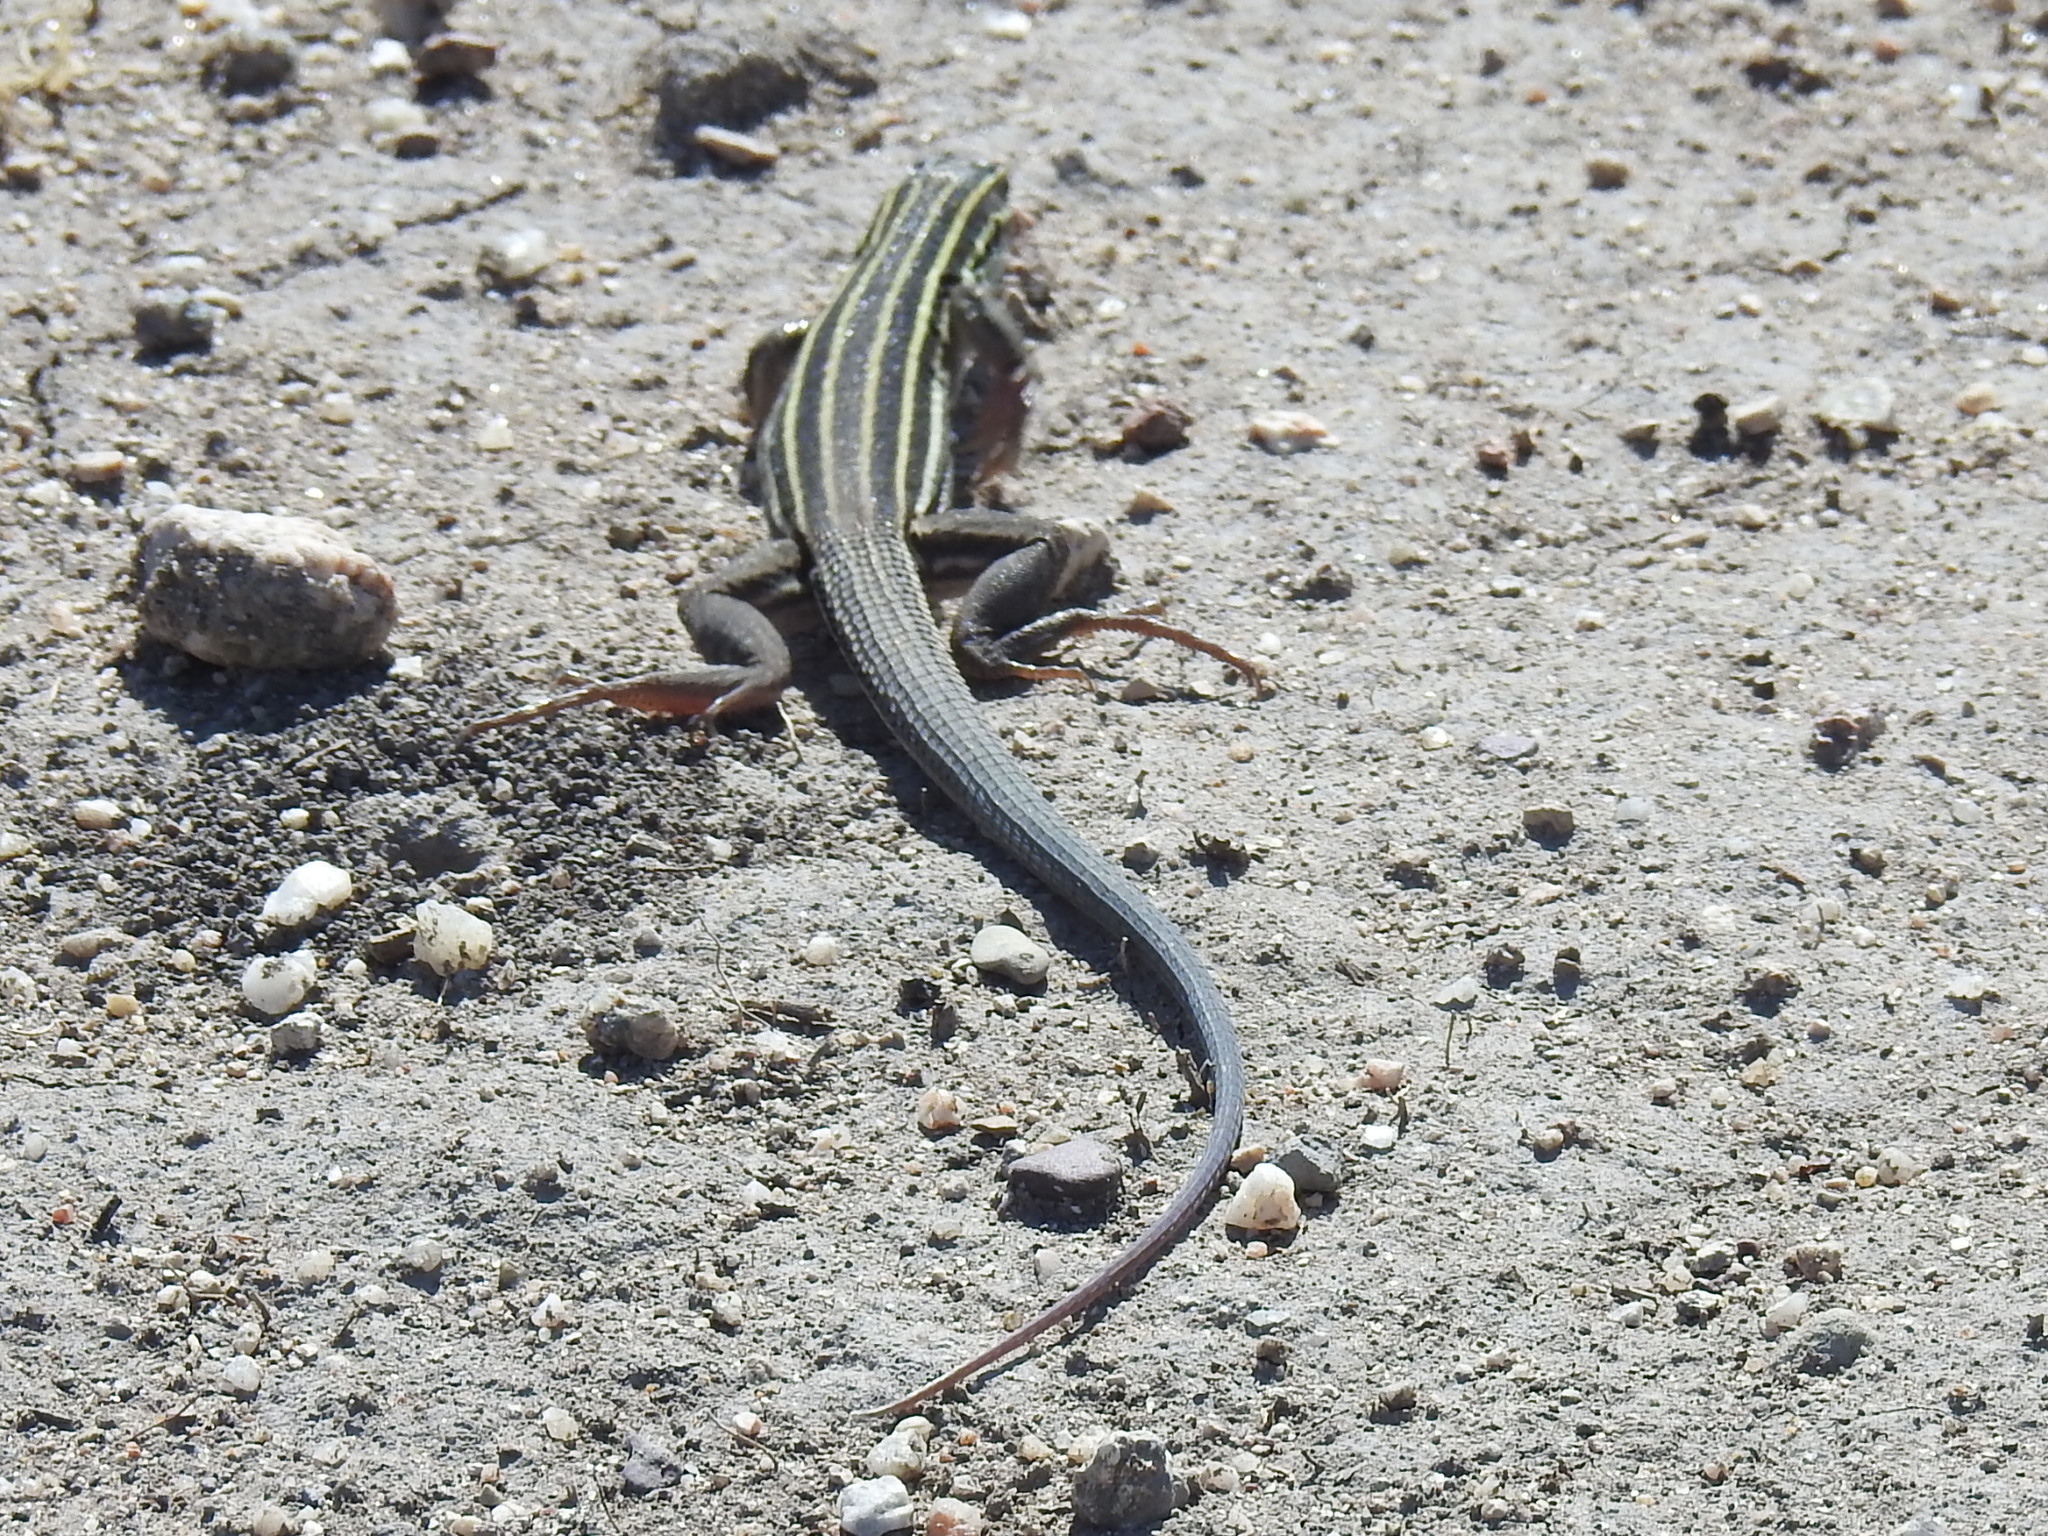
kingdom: Animalia
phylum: Chordata
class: Squamata
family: Teiidae
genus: Aspidoscelis
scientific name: Aspidoscelis uniparens
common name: Desert grassland whiptail
